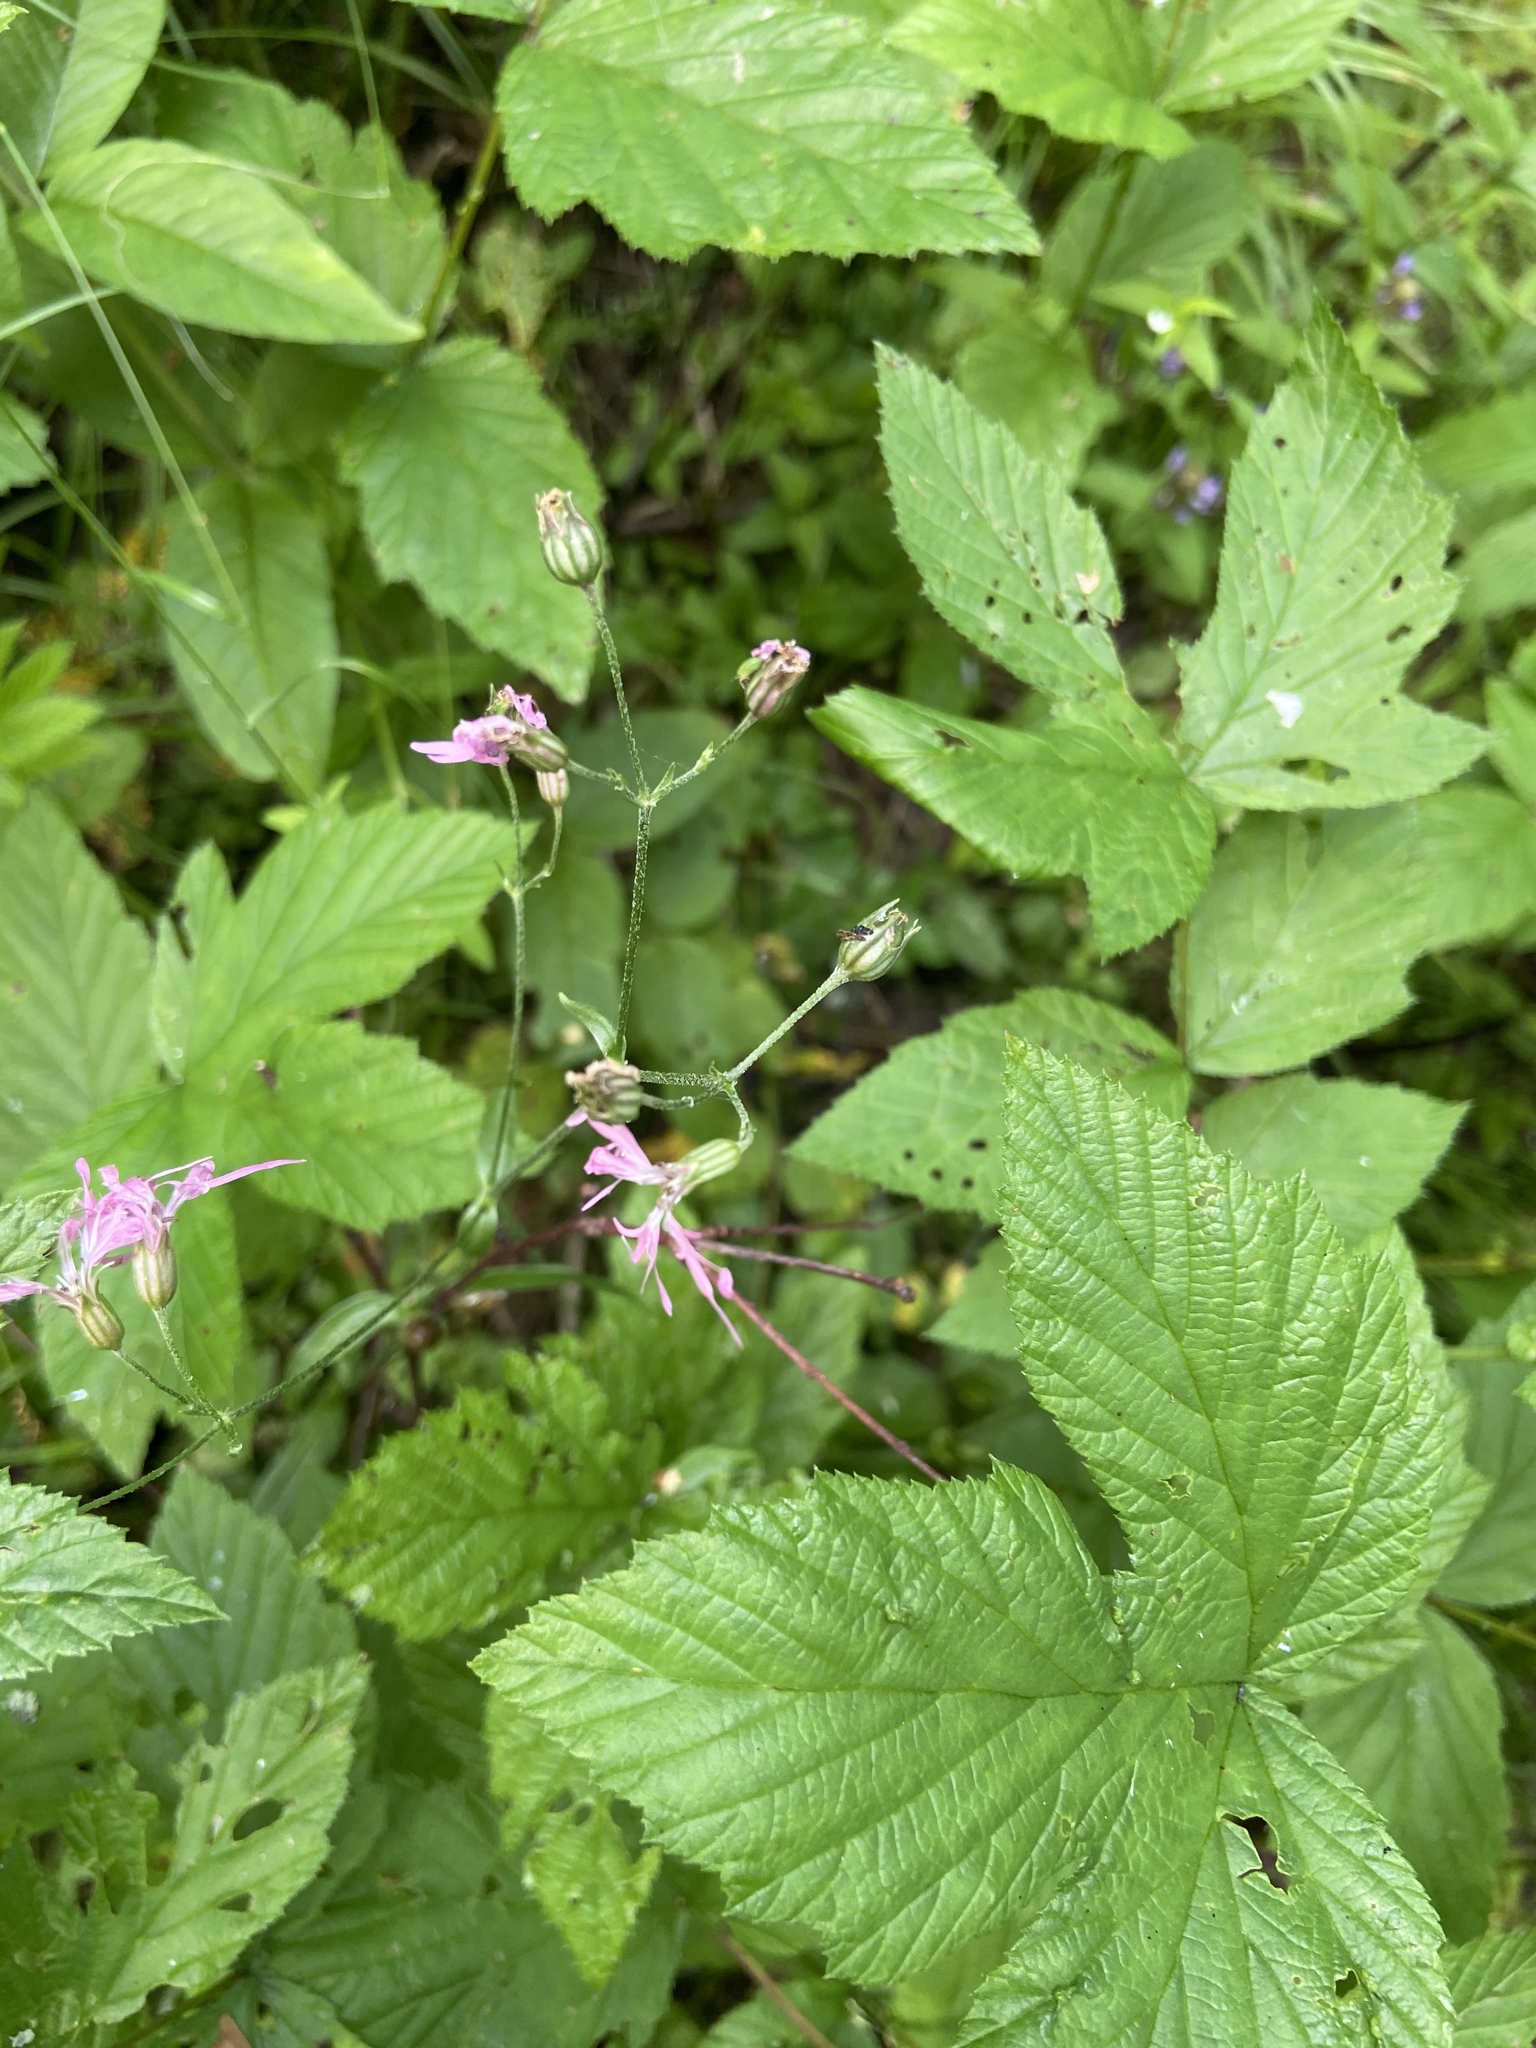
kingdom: Plantae
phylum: Tracheophyta
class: Magnoliopsida
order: Caryophyllales
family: Caryophyllaceae
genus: Silene
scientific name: Silene flos-cuculi
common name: Ragged-robin
